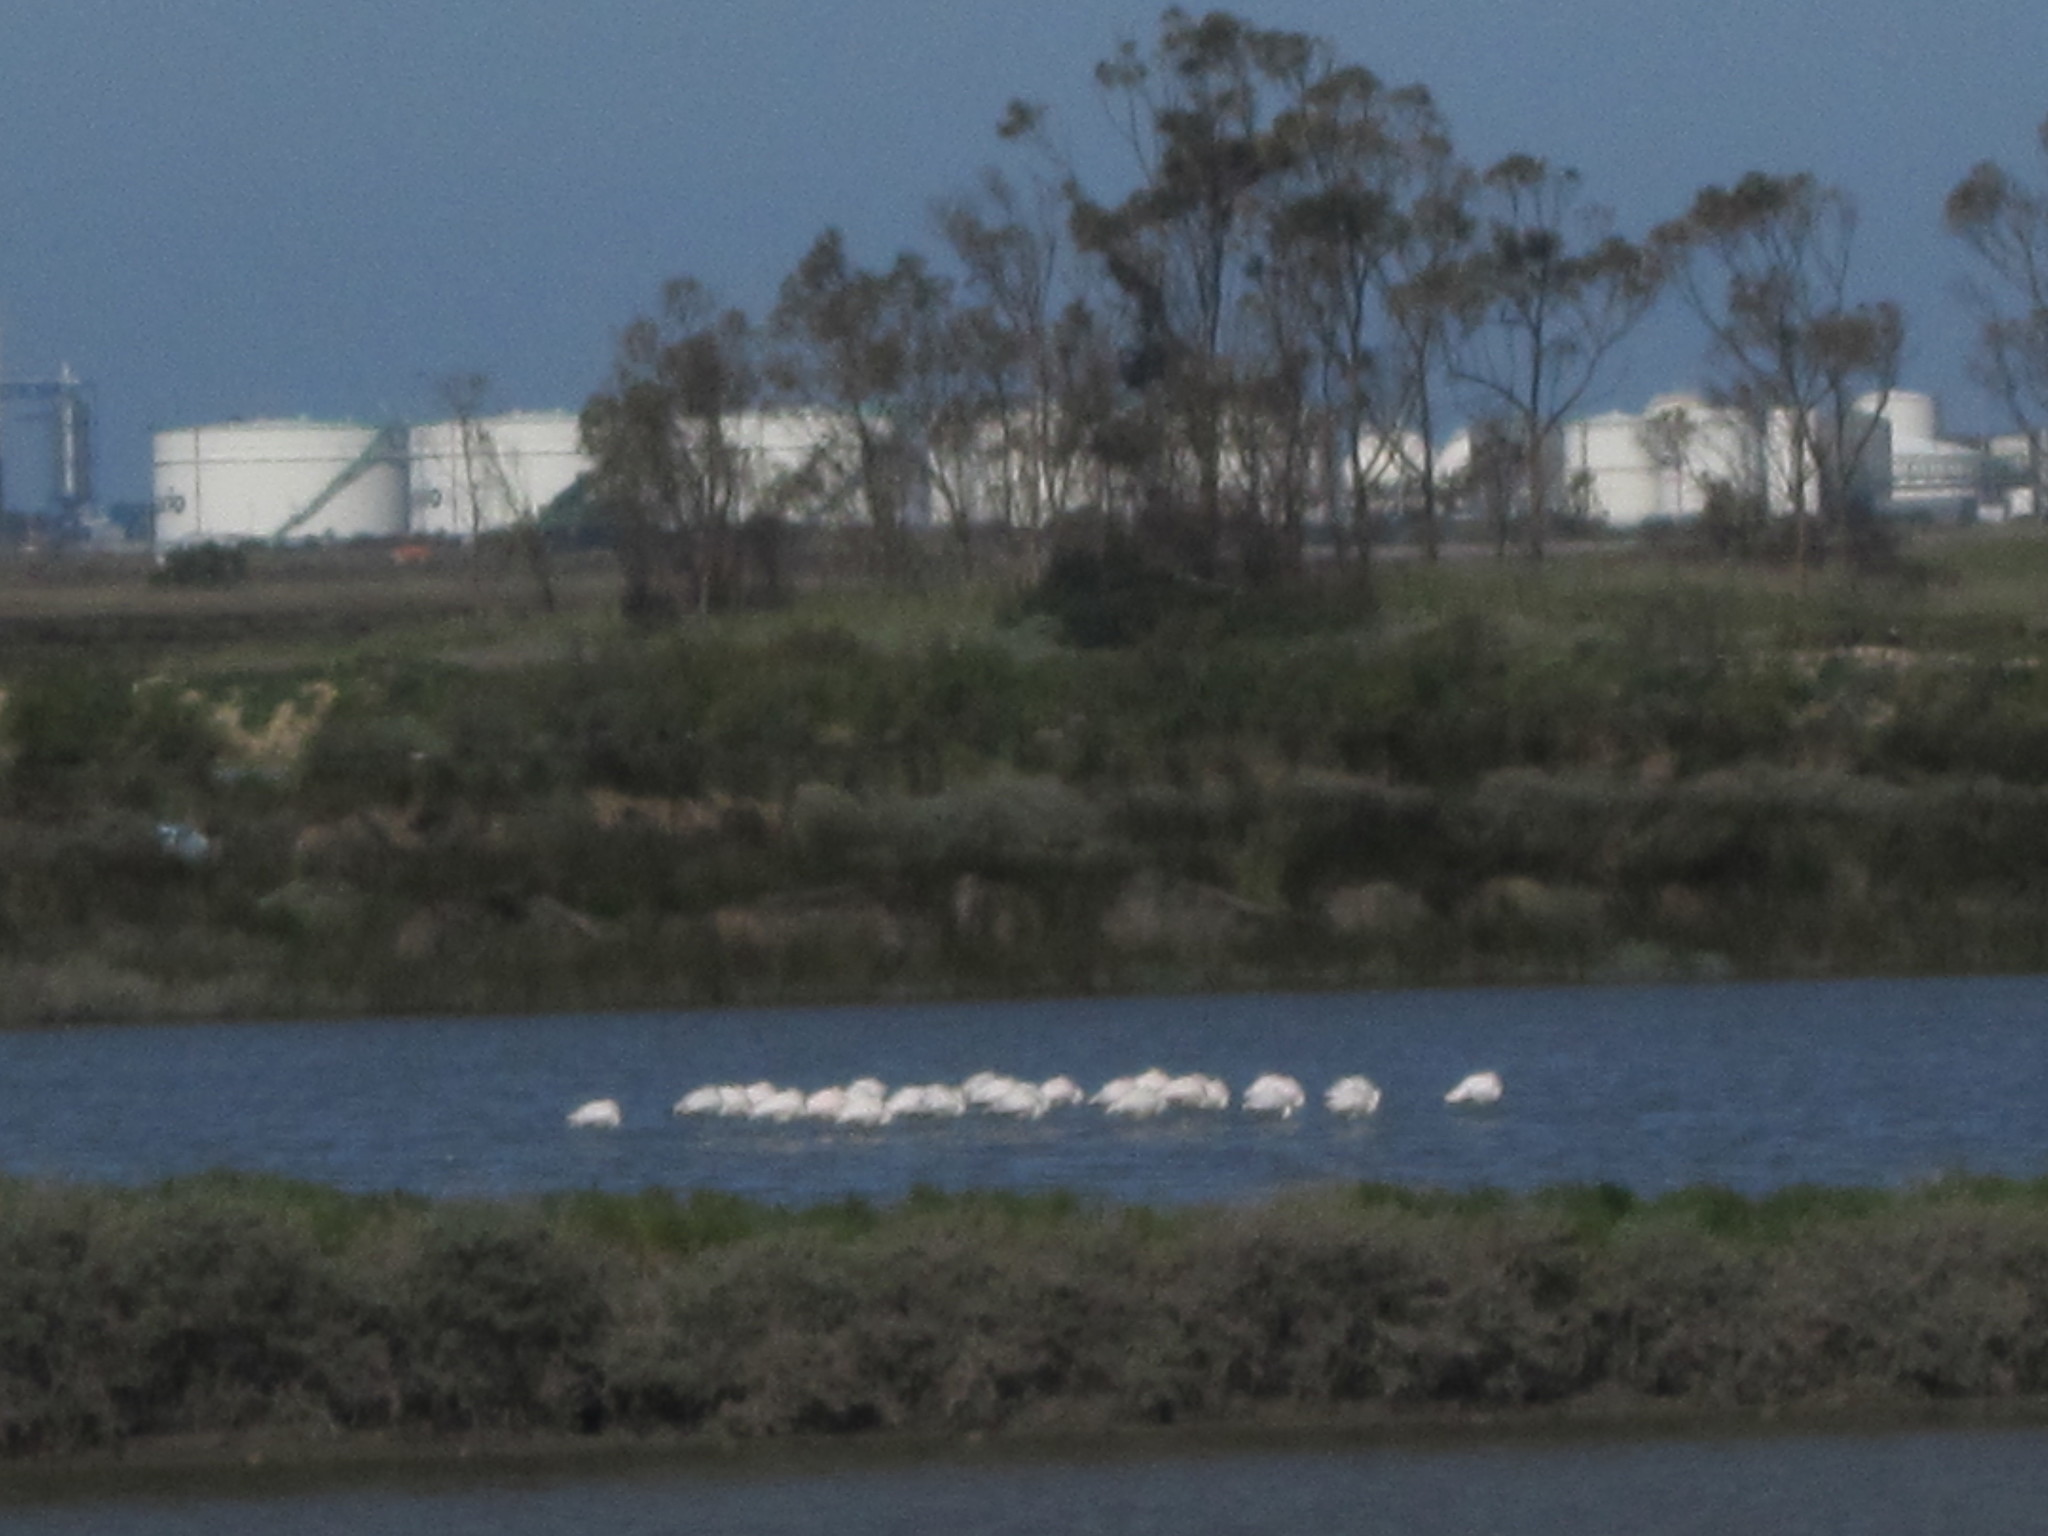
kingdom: Animalia
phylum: Chordata
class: Aves
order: Phoenicopteriformes
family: Phoenicopteridae
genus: Phoenicopterus
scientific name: Phoenicopterus roseus
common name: Greater flamingo
